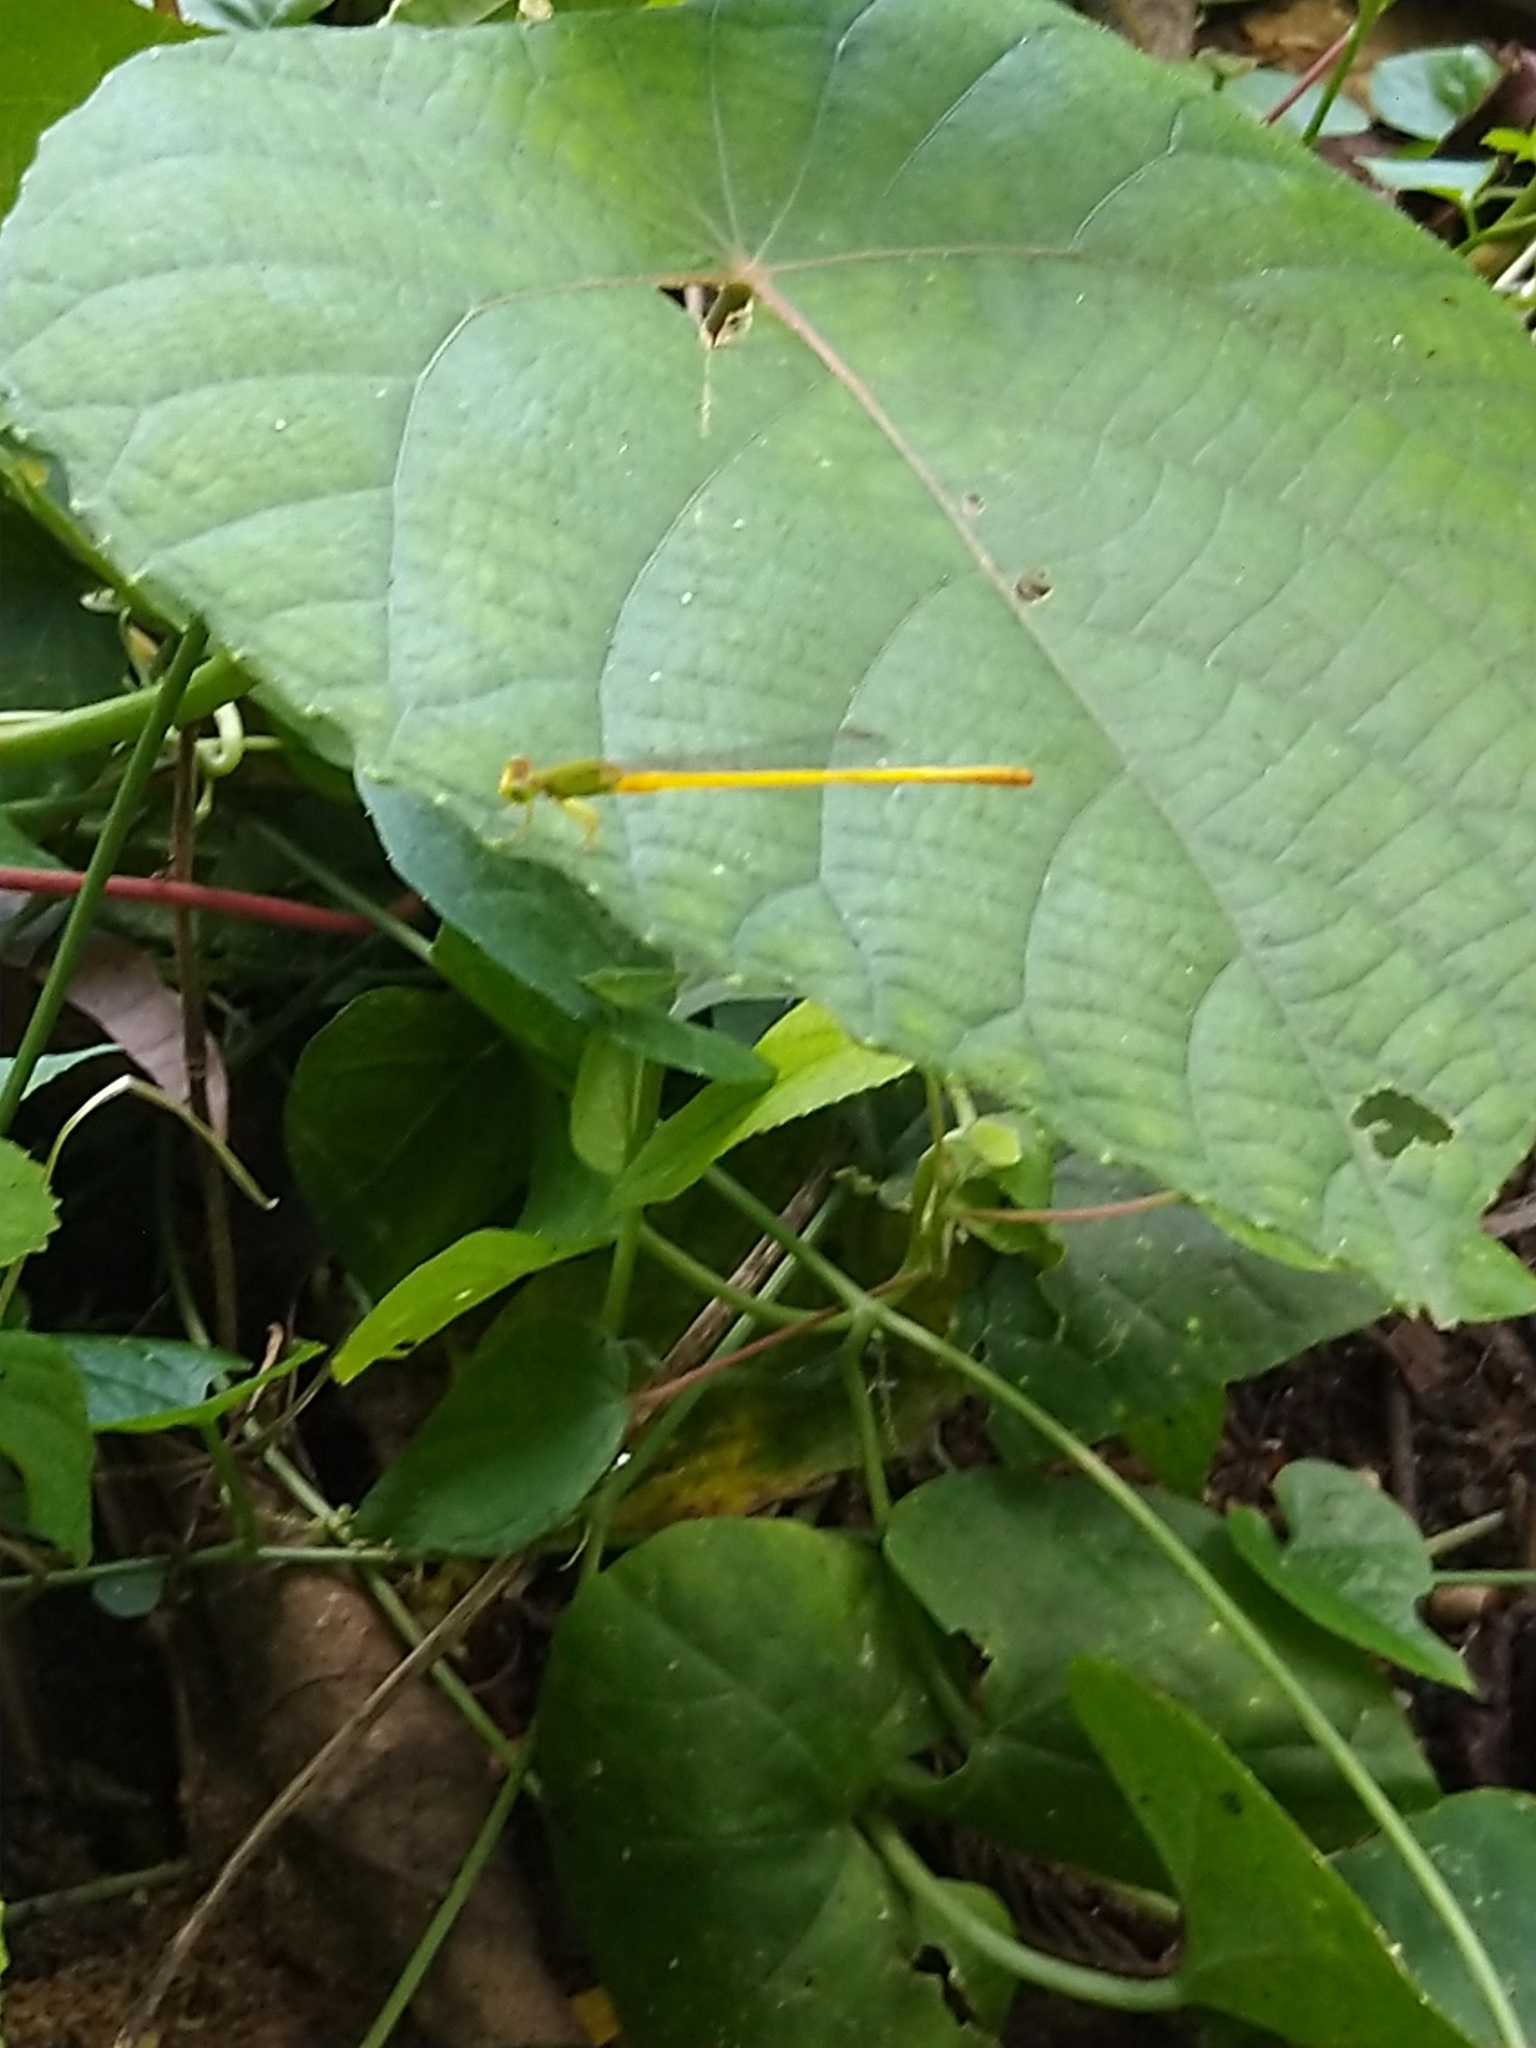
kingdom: Animalia
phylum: Arthropoda
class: Insecta
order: Odonata
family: Coenagrionidae
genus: Ceriagrion
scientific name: Ceriagrion coromandelianum
